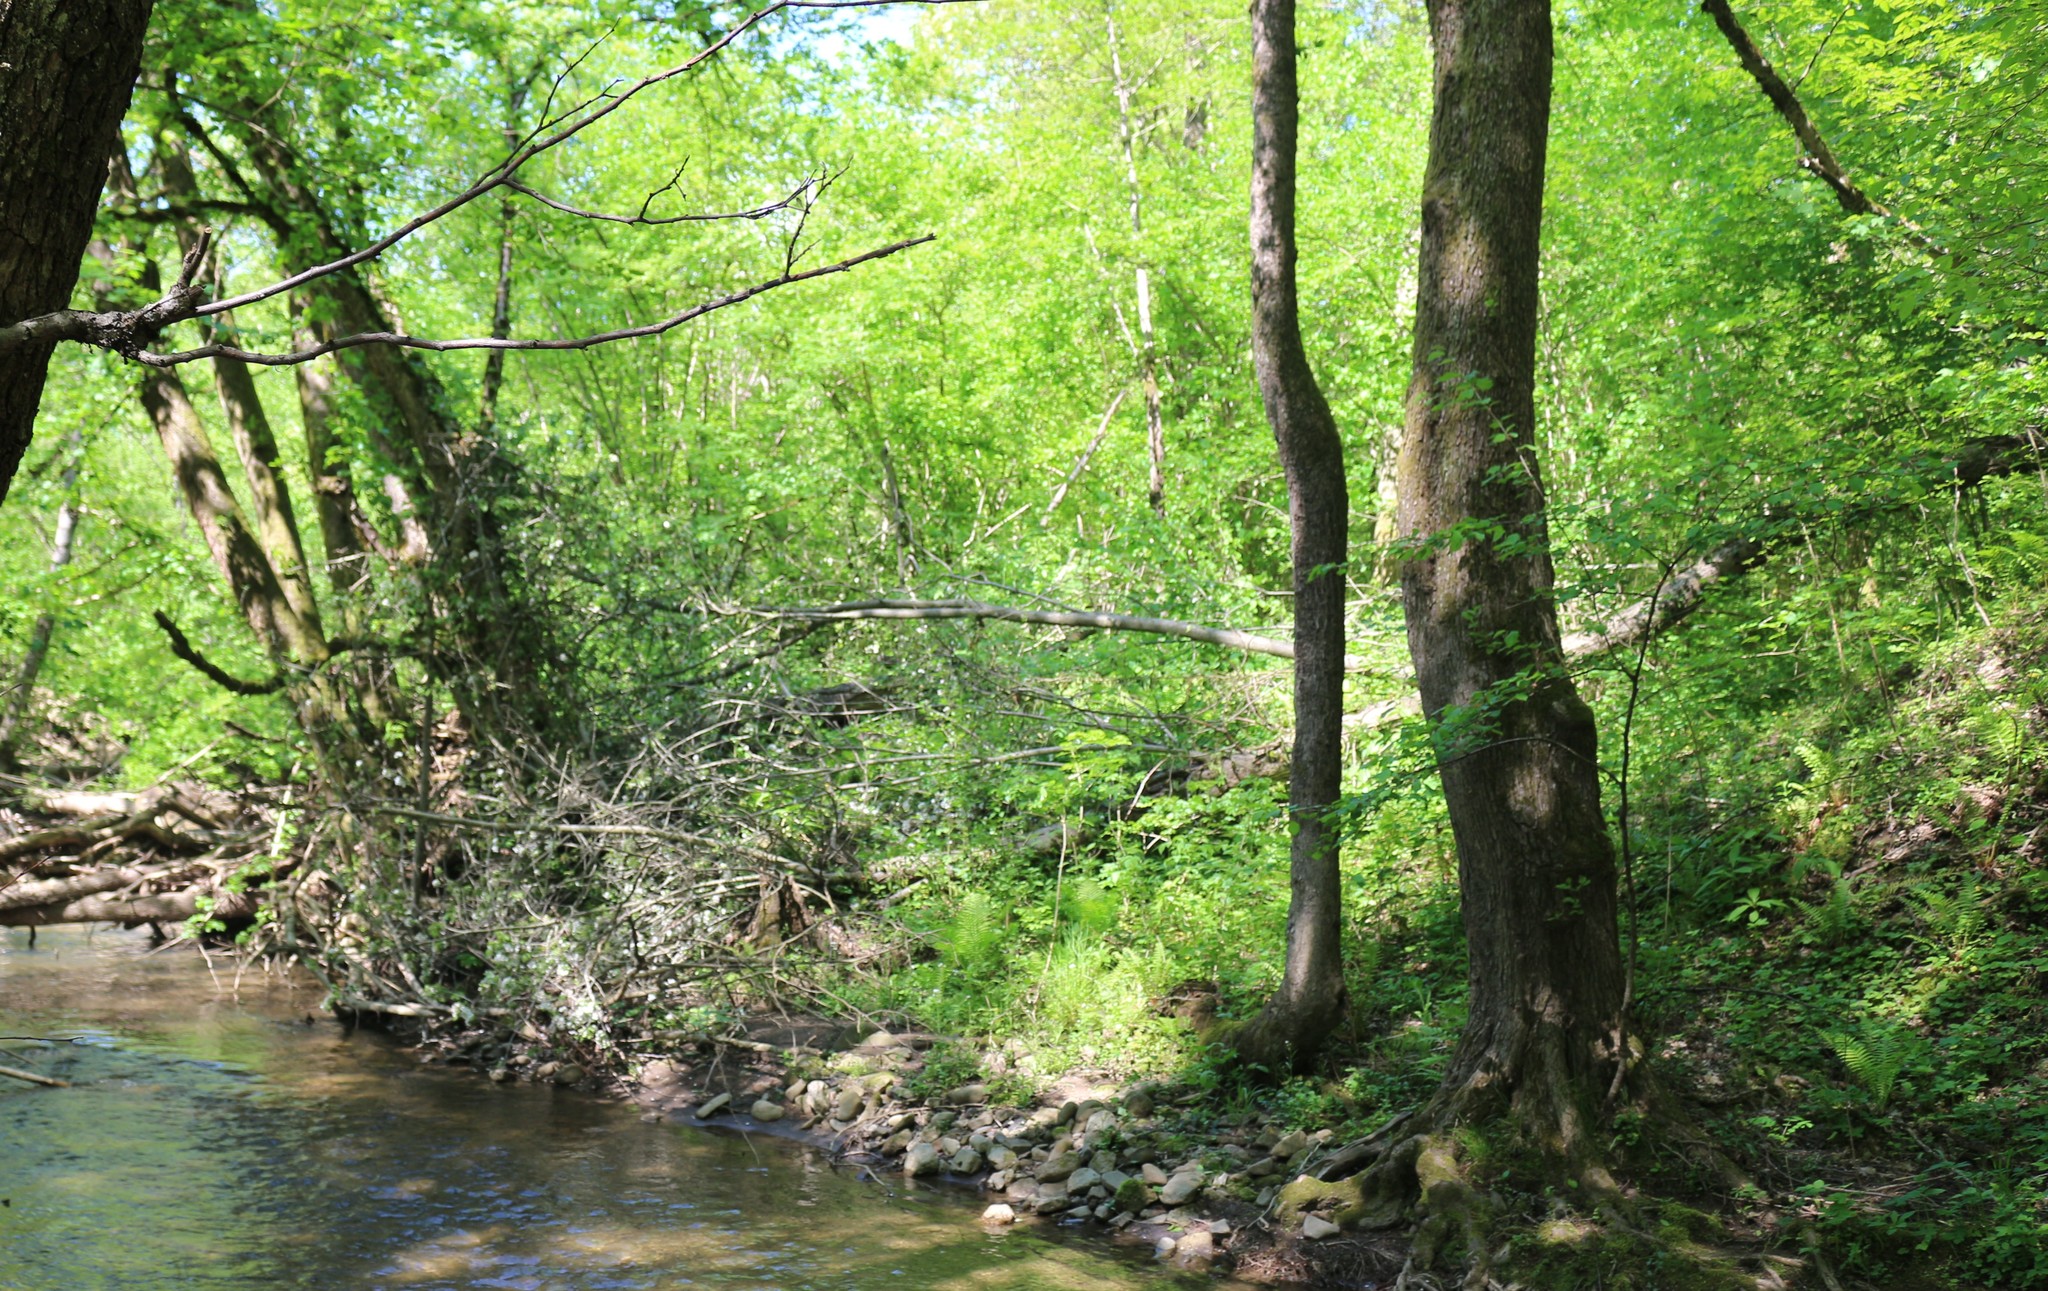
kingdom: Plantae
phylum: Tracheophyta
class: Magnoliopsida
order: Rosales
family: Rosaceae
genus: Malus
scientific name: Malus orientalis
